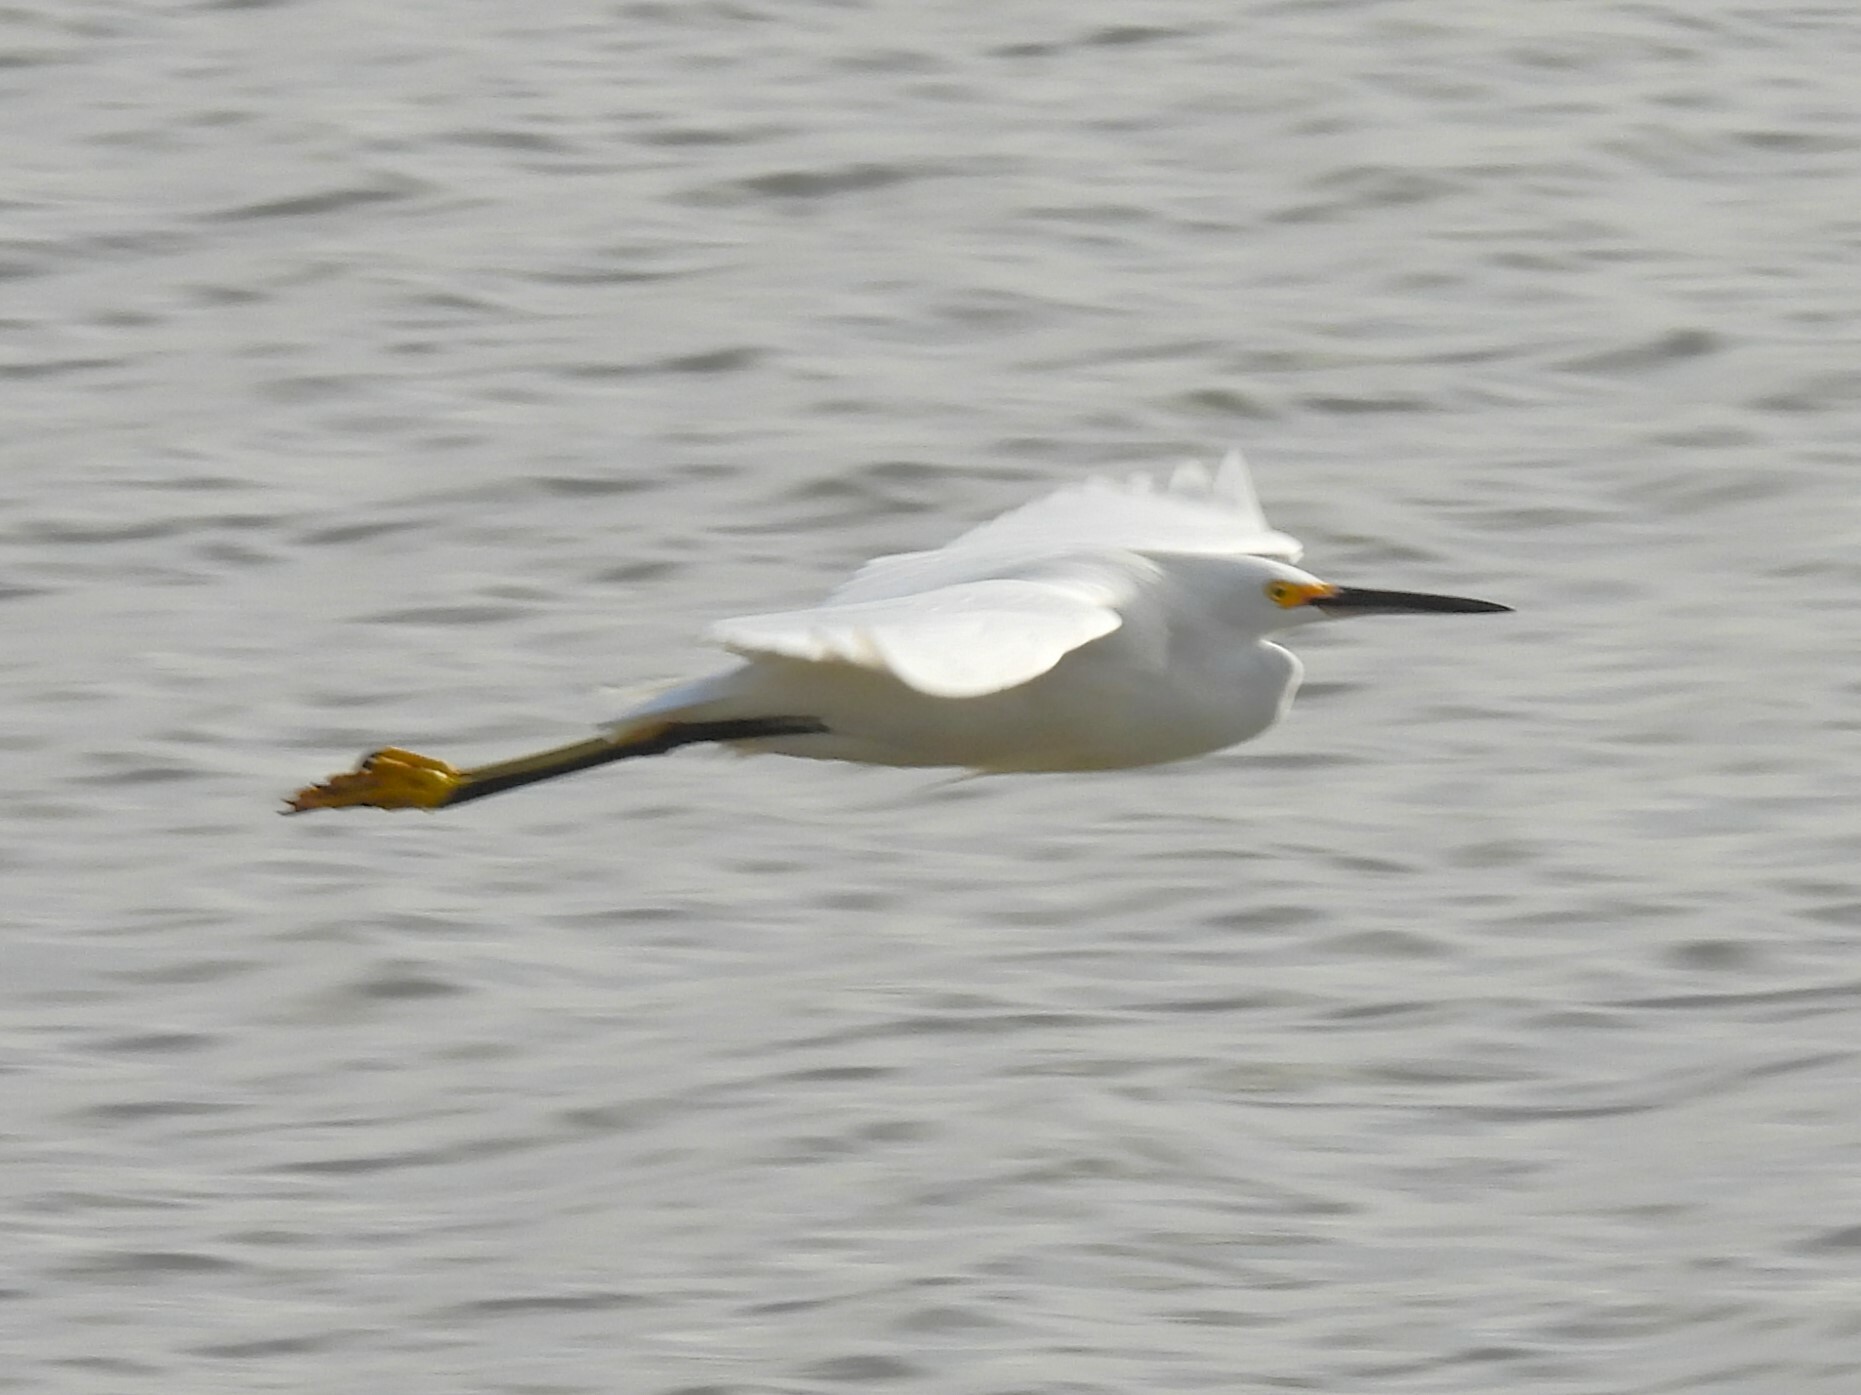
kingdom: Animalia
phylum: Chordata
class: Aves
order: Pelecaniformes
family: Ardeidae
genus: Egretta
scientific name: Egretta thula
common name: Snowy egret
